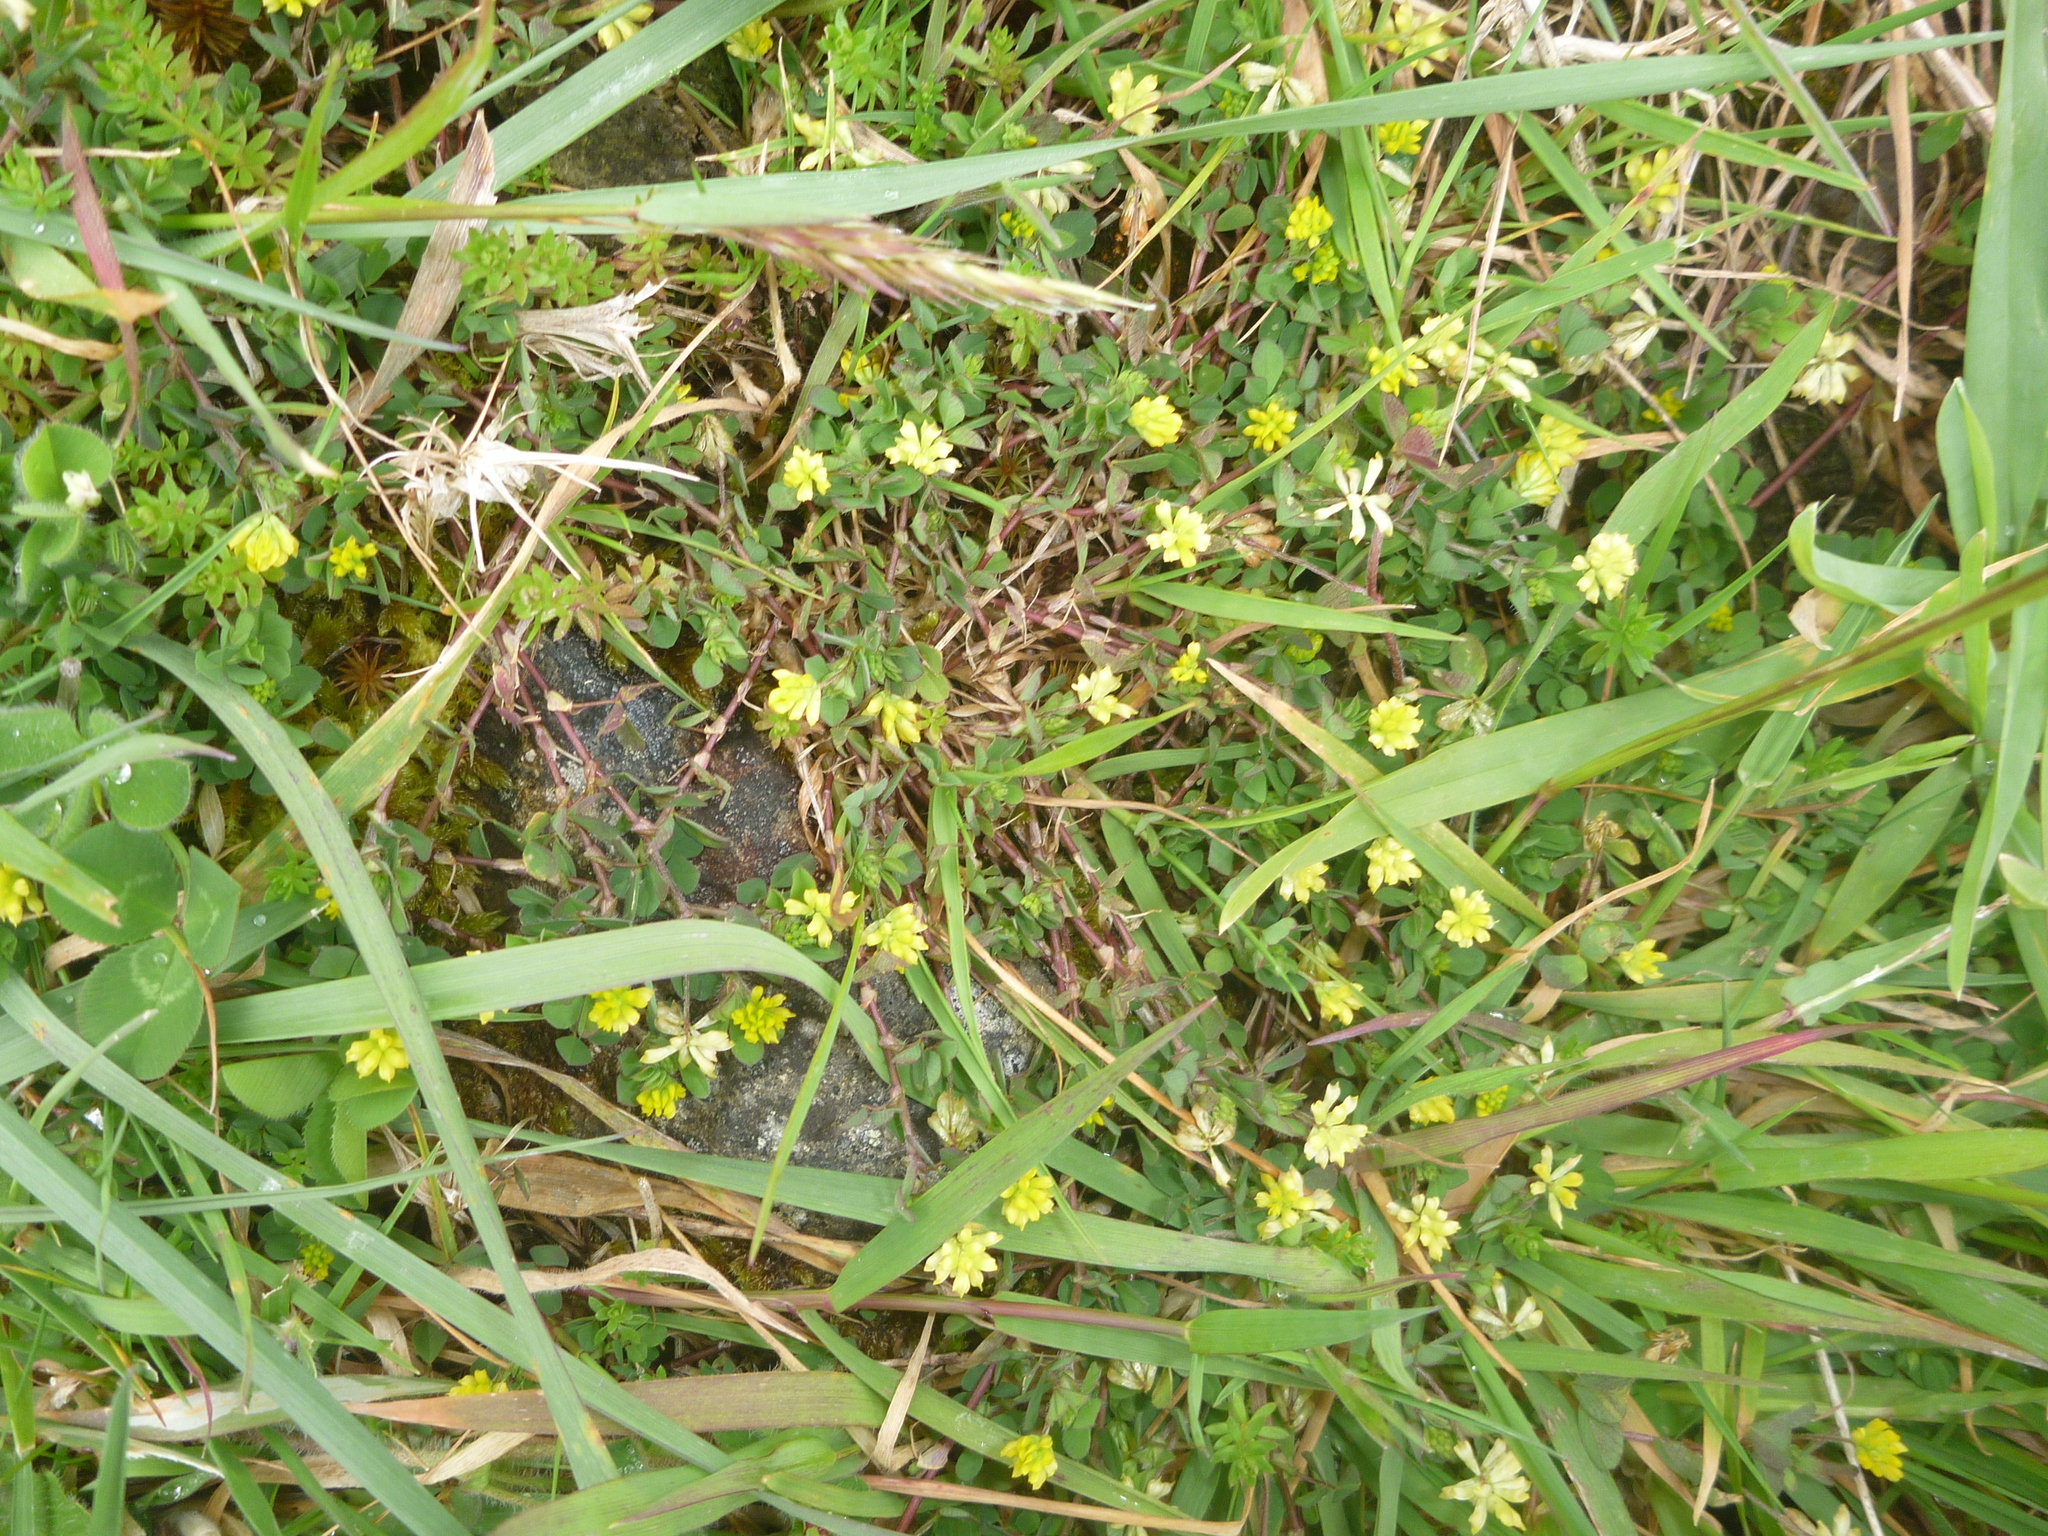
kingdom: Plantae
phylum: Tracheophyta
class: Magnoliopsida
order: Fabales
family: Fabaceae
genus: Trifolium
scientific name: Trifolium dubium
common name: Suckling clover
